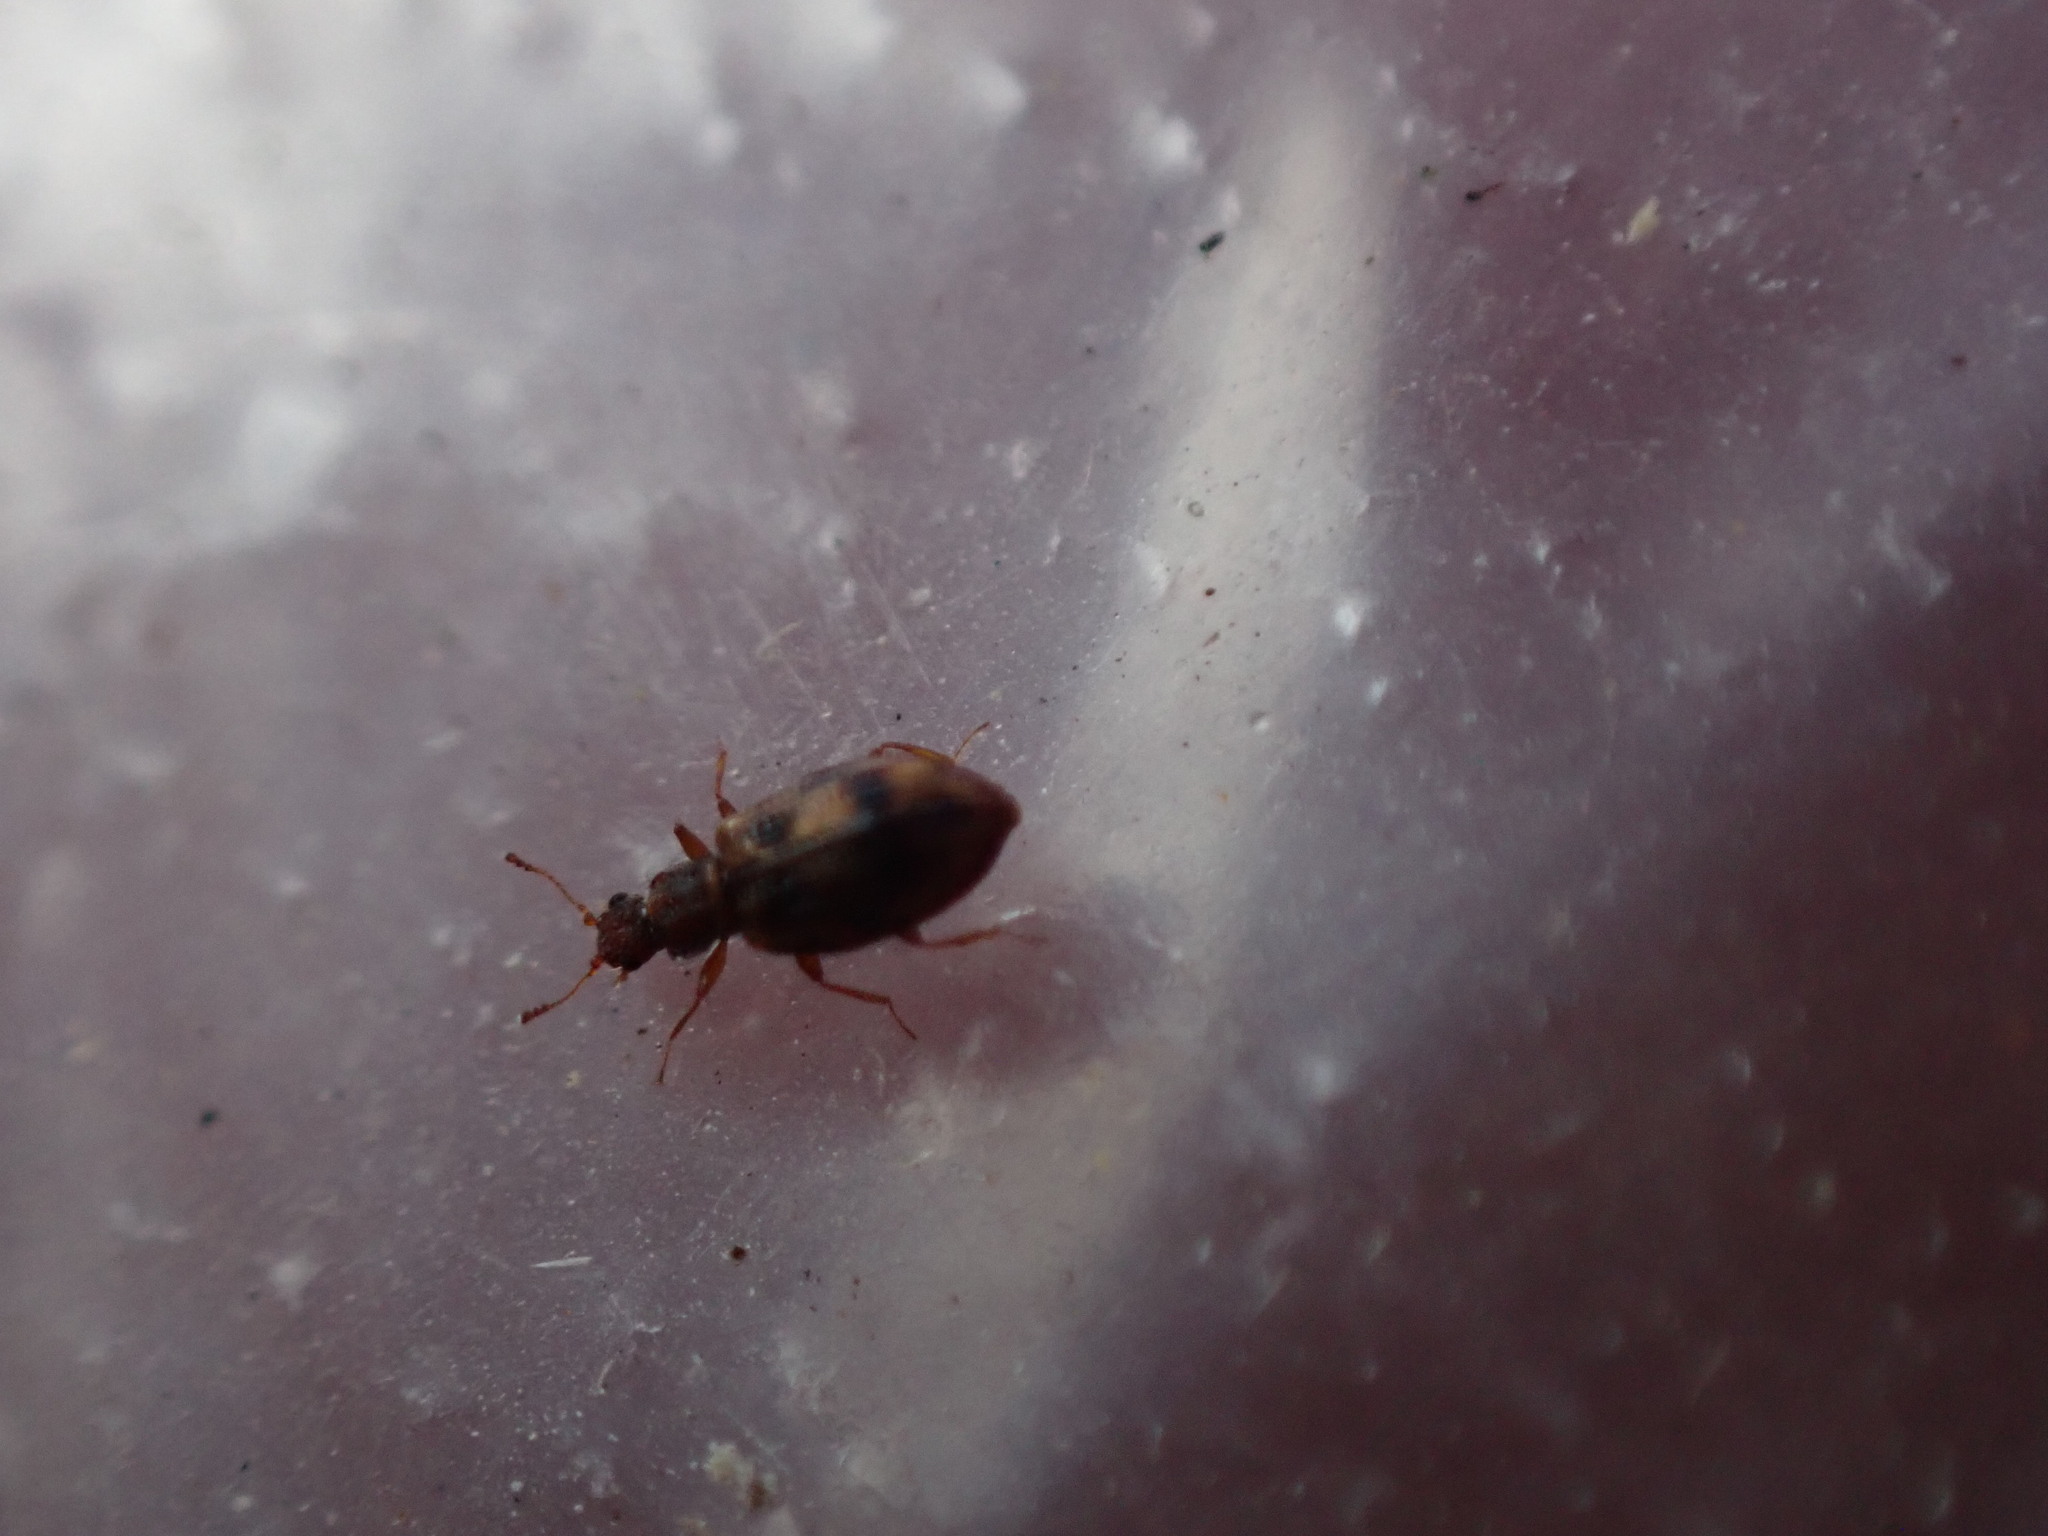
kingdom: Animalia
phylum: Arthropoda
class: Insecta
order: Coleoptera
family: Latridiidae
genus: Cartodere
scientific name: Cartodere bifasciata
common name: Plaster beetle
